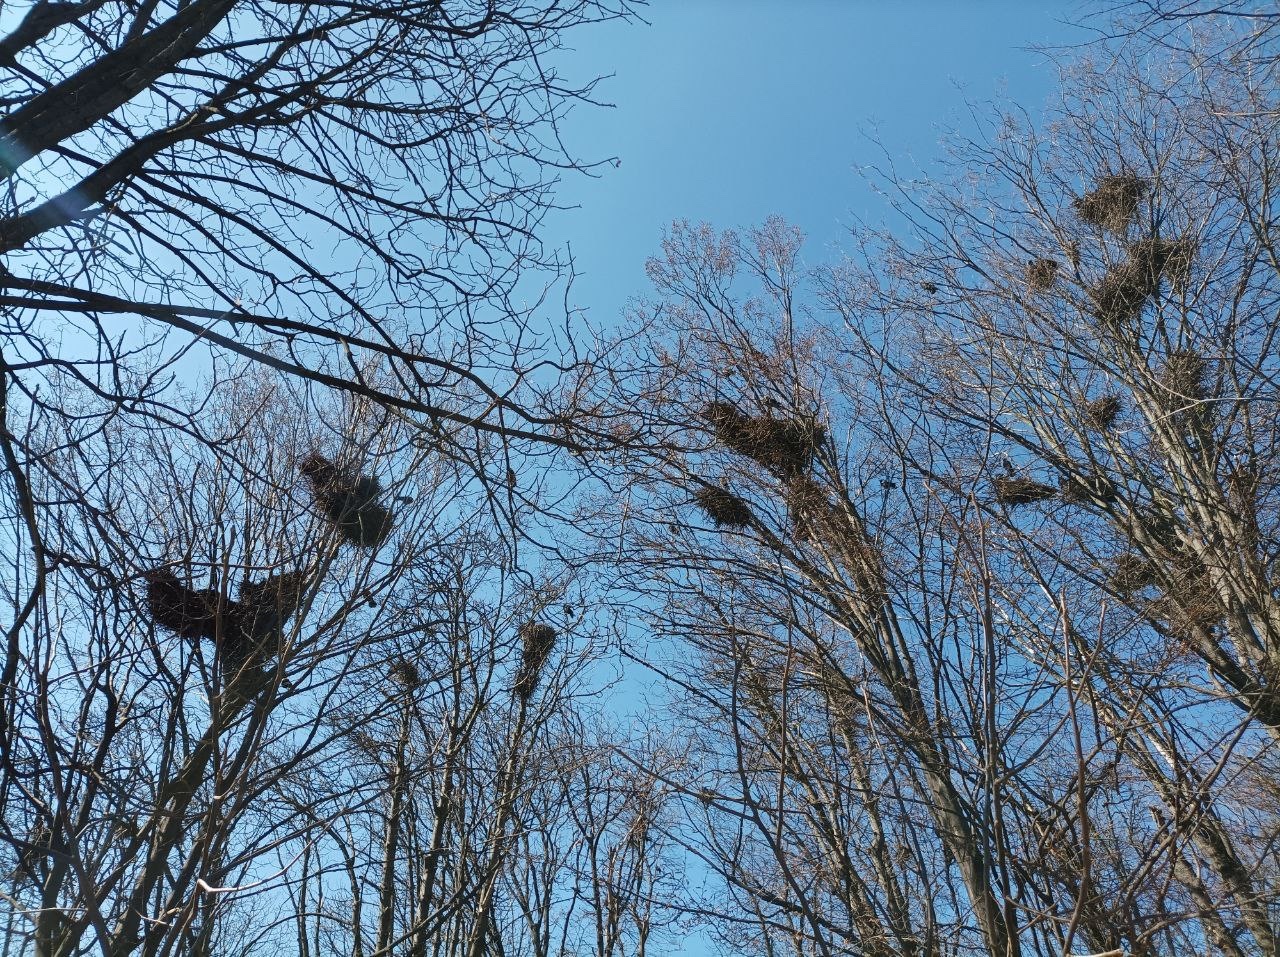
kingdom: Animalia
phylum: Chordata
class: Aves
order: Passeriformes
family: Corvidae
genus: Corvus
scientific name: Corvus frugilegus
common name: Rook
